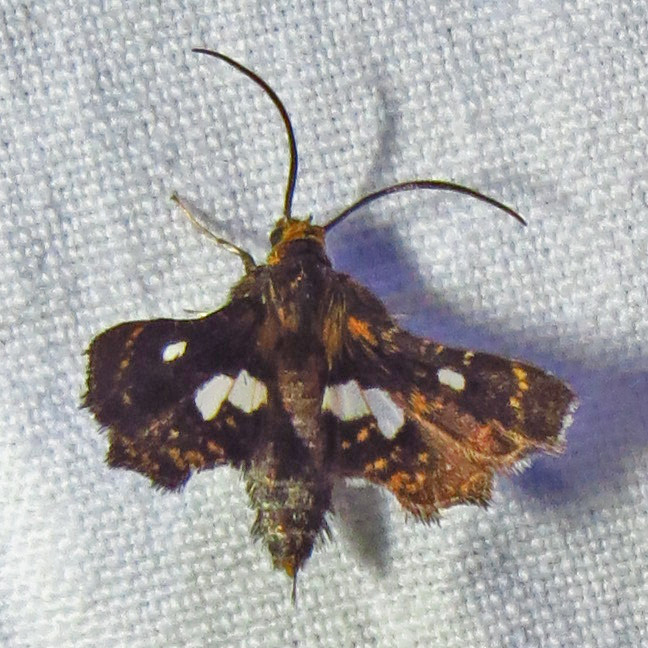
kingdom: Animalia
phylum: Arthropoda
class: Insecta
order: Lepidoptera
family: Thyrididae
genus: Thyris
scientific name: Thyris maculata
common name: Spotted thyris moth
